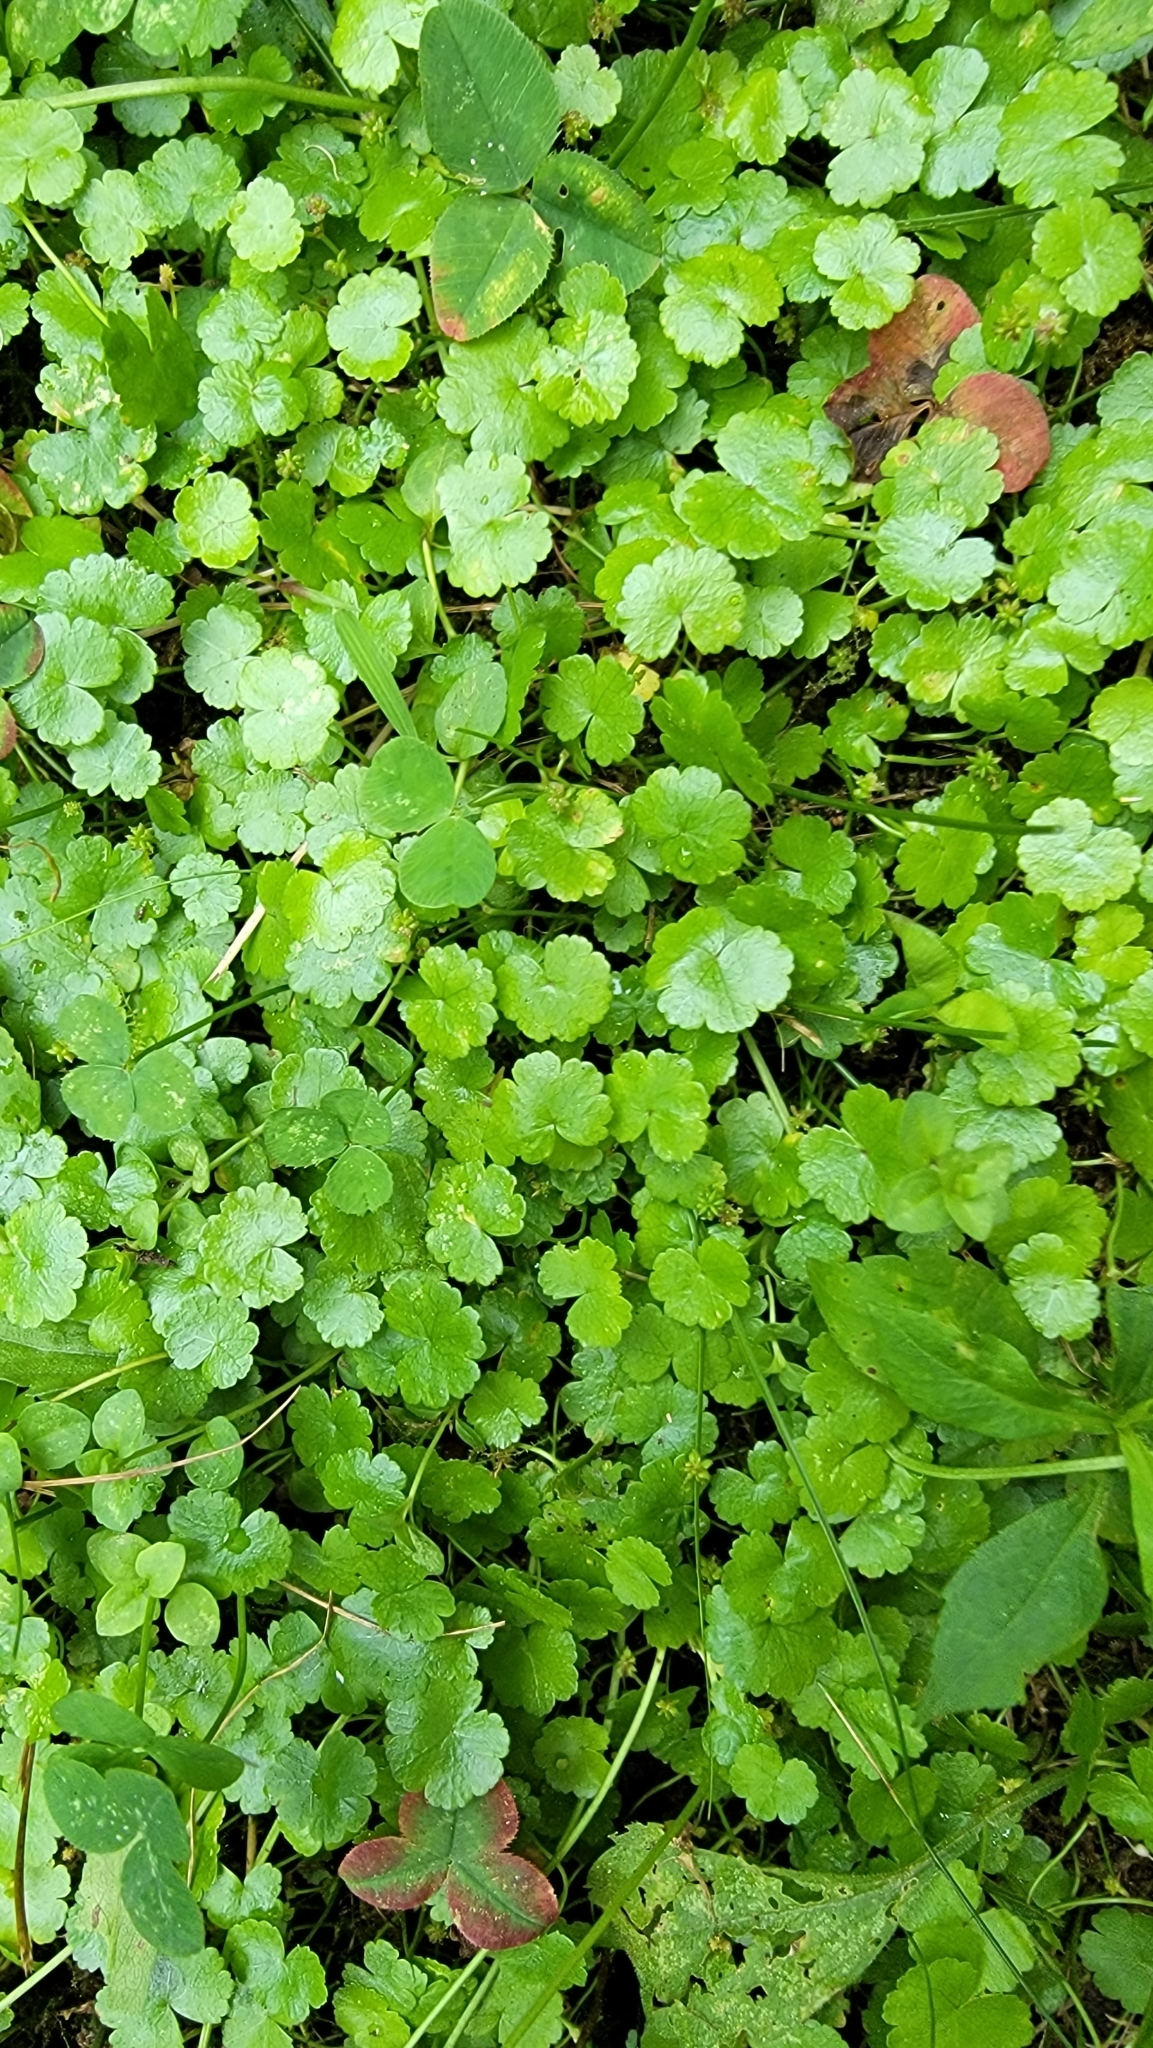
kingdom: Plantae
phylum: Tracheophyta
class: Magnoliopsida
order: Apiales
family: Araliaceae
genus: Hydrocotyle
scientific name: Hydrocotyle sibthorpioides
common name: Lawn marshpennywort
